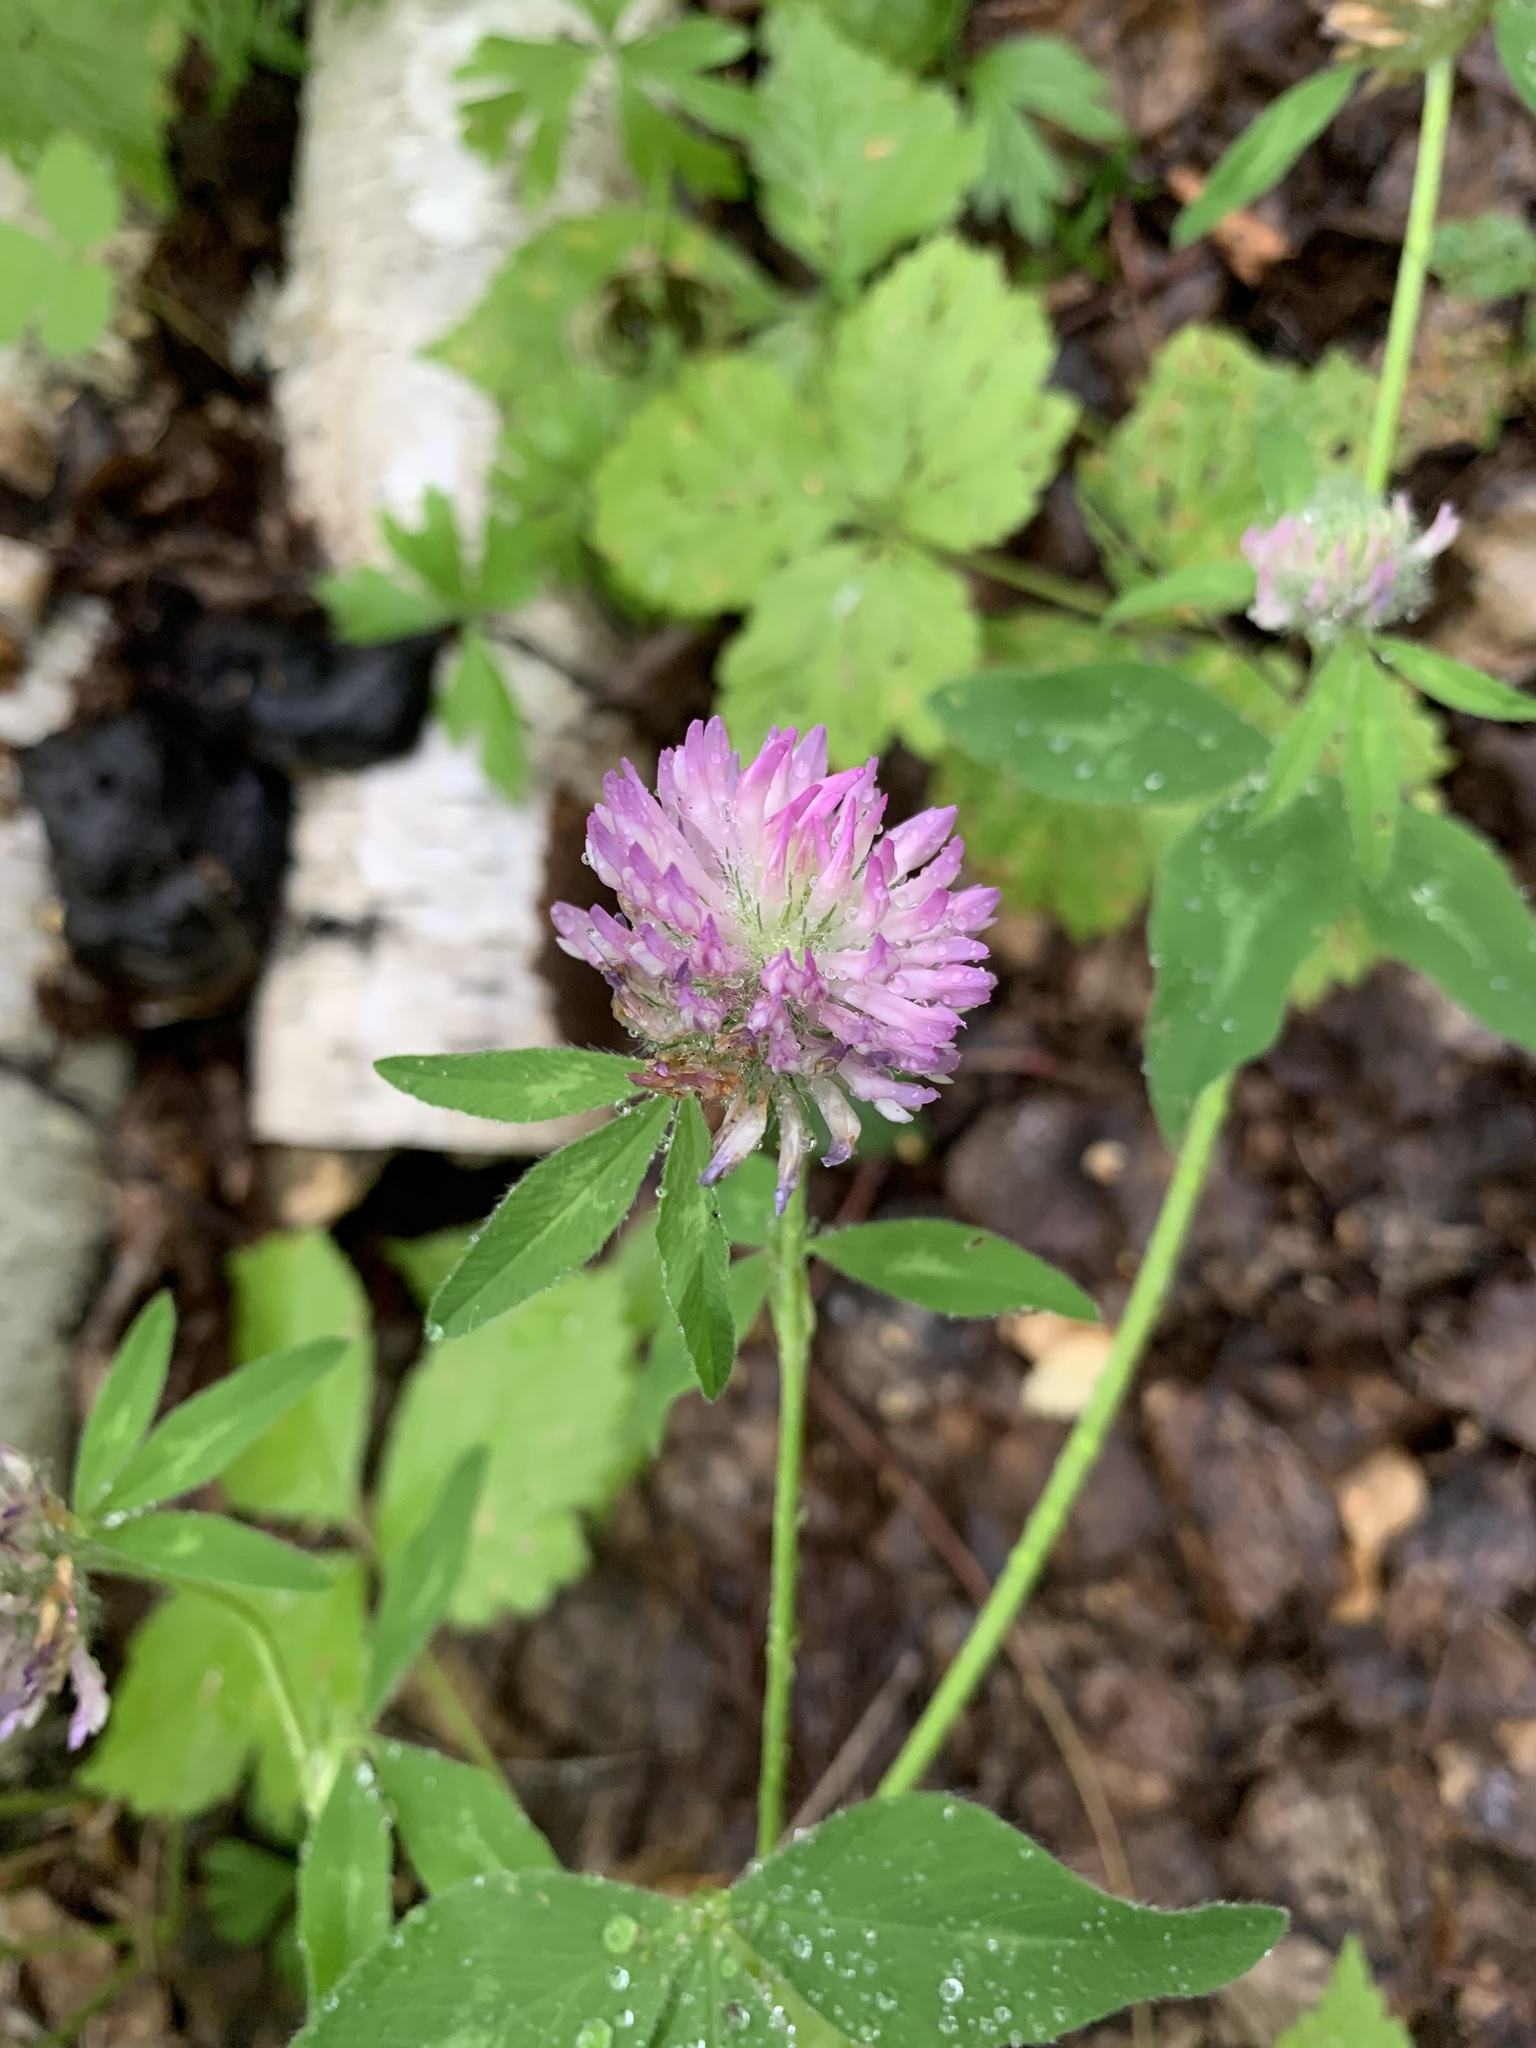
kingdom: Plantae
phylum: Tracheophyta
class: Magnoliopsida
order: Fabales
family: Fabaceae
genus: Trifolium
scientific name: Trifolium pratense
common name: Red clover
